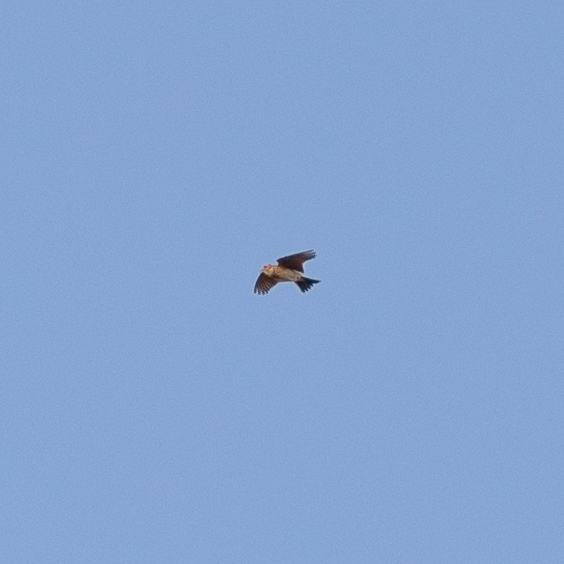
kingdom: Animalia
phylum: Chordata
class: Aves
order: Passeriformes
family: Alaudidae
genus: Alauda
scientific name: Alauda arvensis
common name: Eurasian skylark
